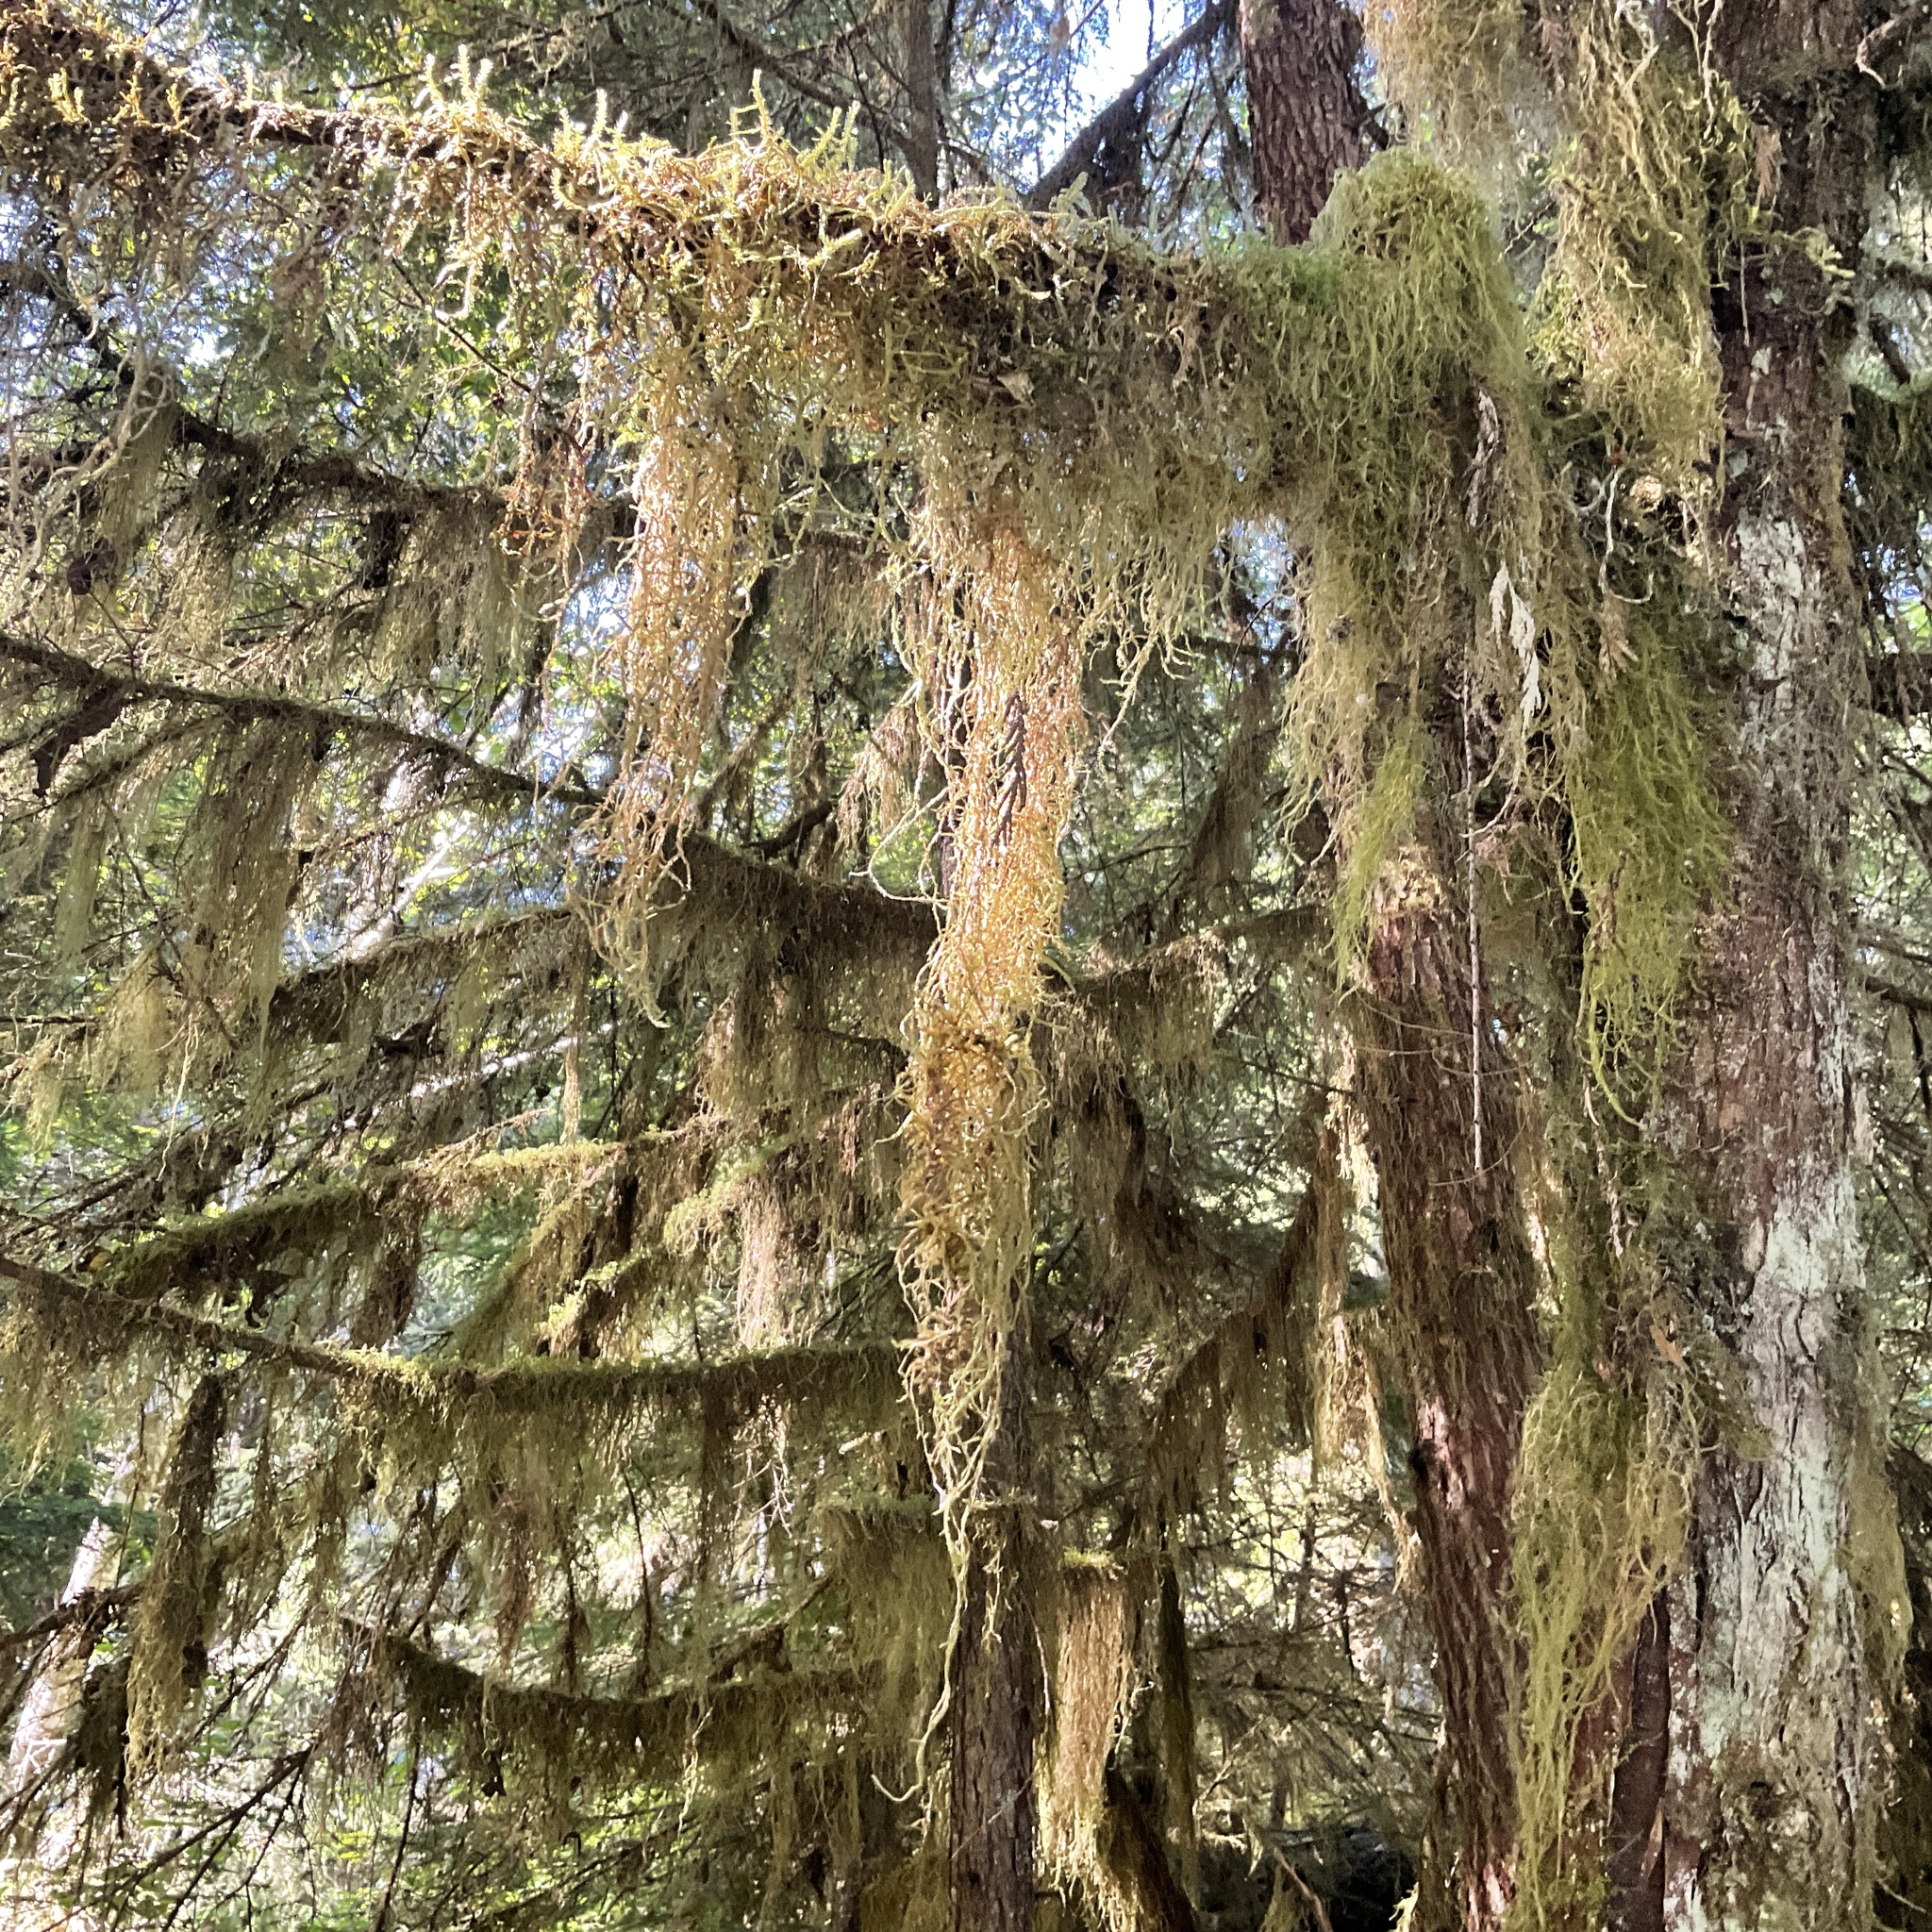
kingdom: Plantae
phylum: Bryophyta
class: Bryopsida
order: Hypnales
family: Lembophyllaceae
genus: Pseudisothecium
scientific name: Pseudisothecium stoloniferum
